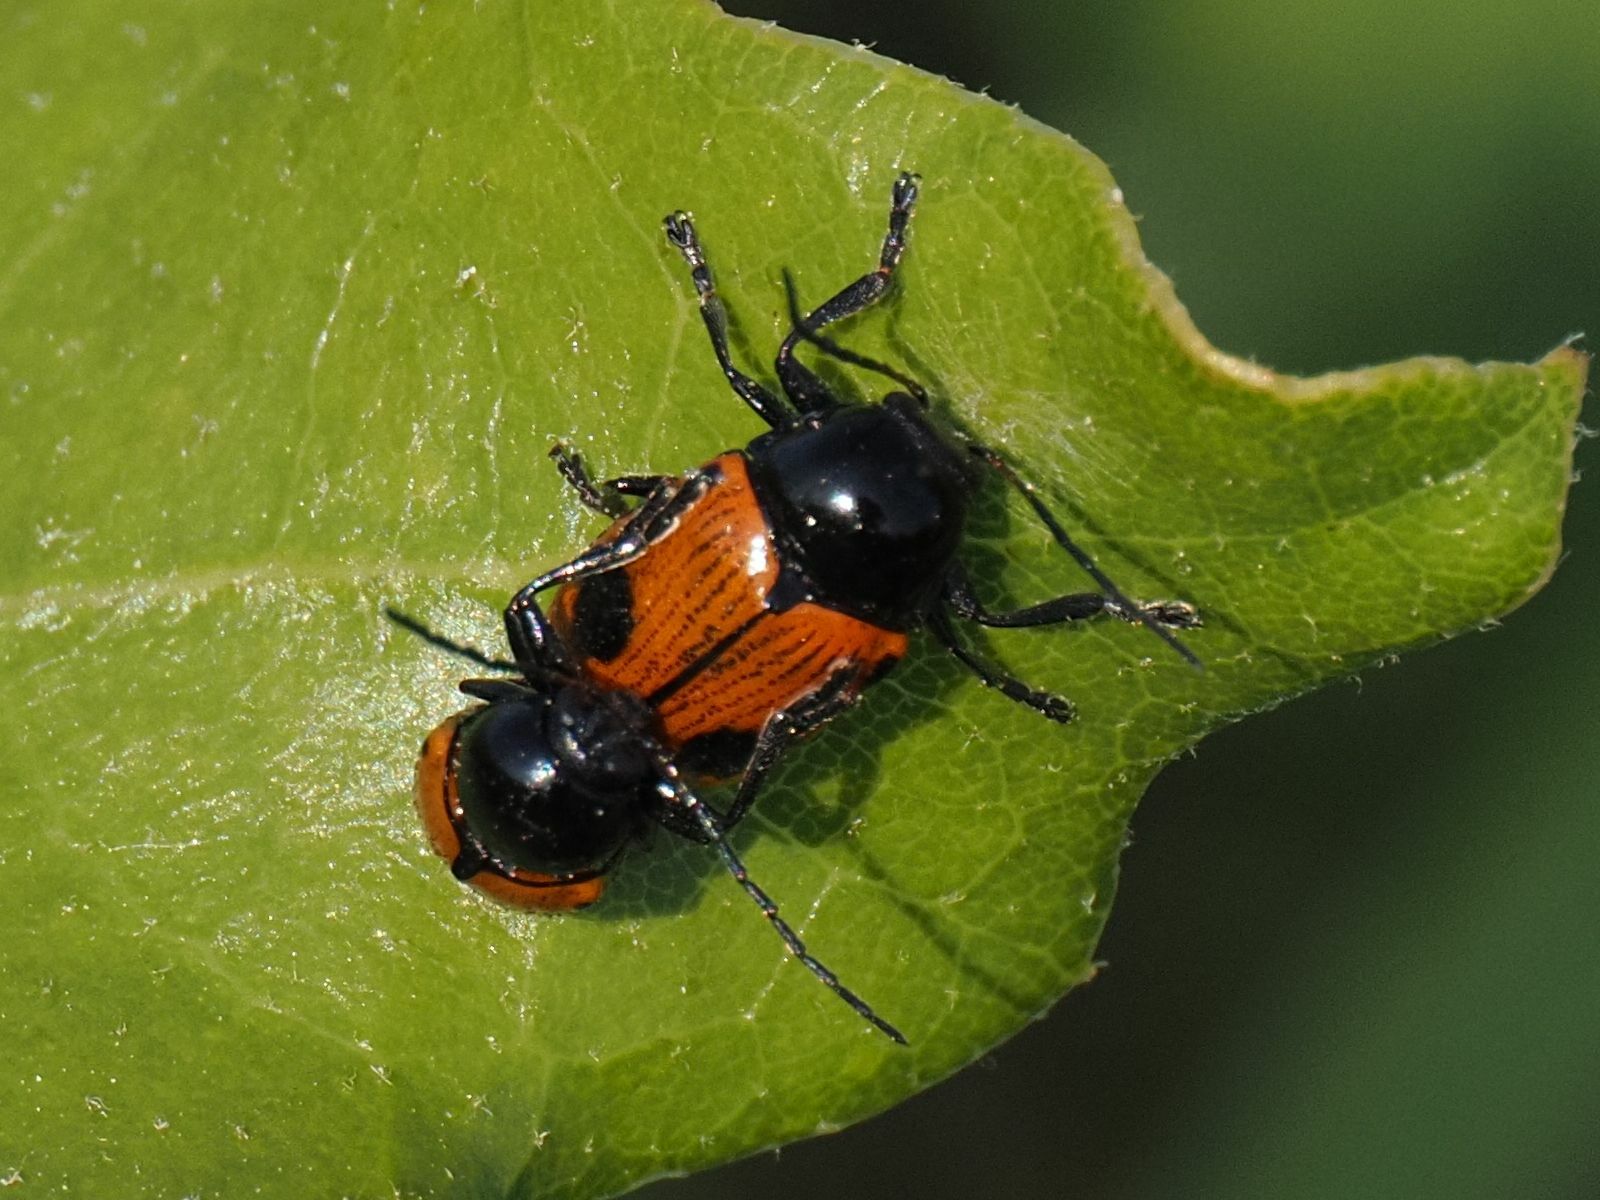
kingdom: Animalia
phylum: Arthropoda
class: Insecta
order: Coleoptera
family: Chrysomelidae
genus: Chiridopsis
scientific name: Chiridopsis bipunctata
